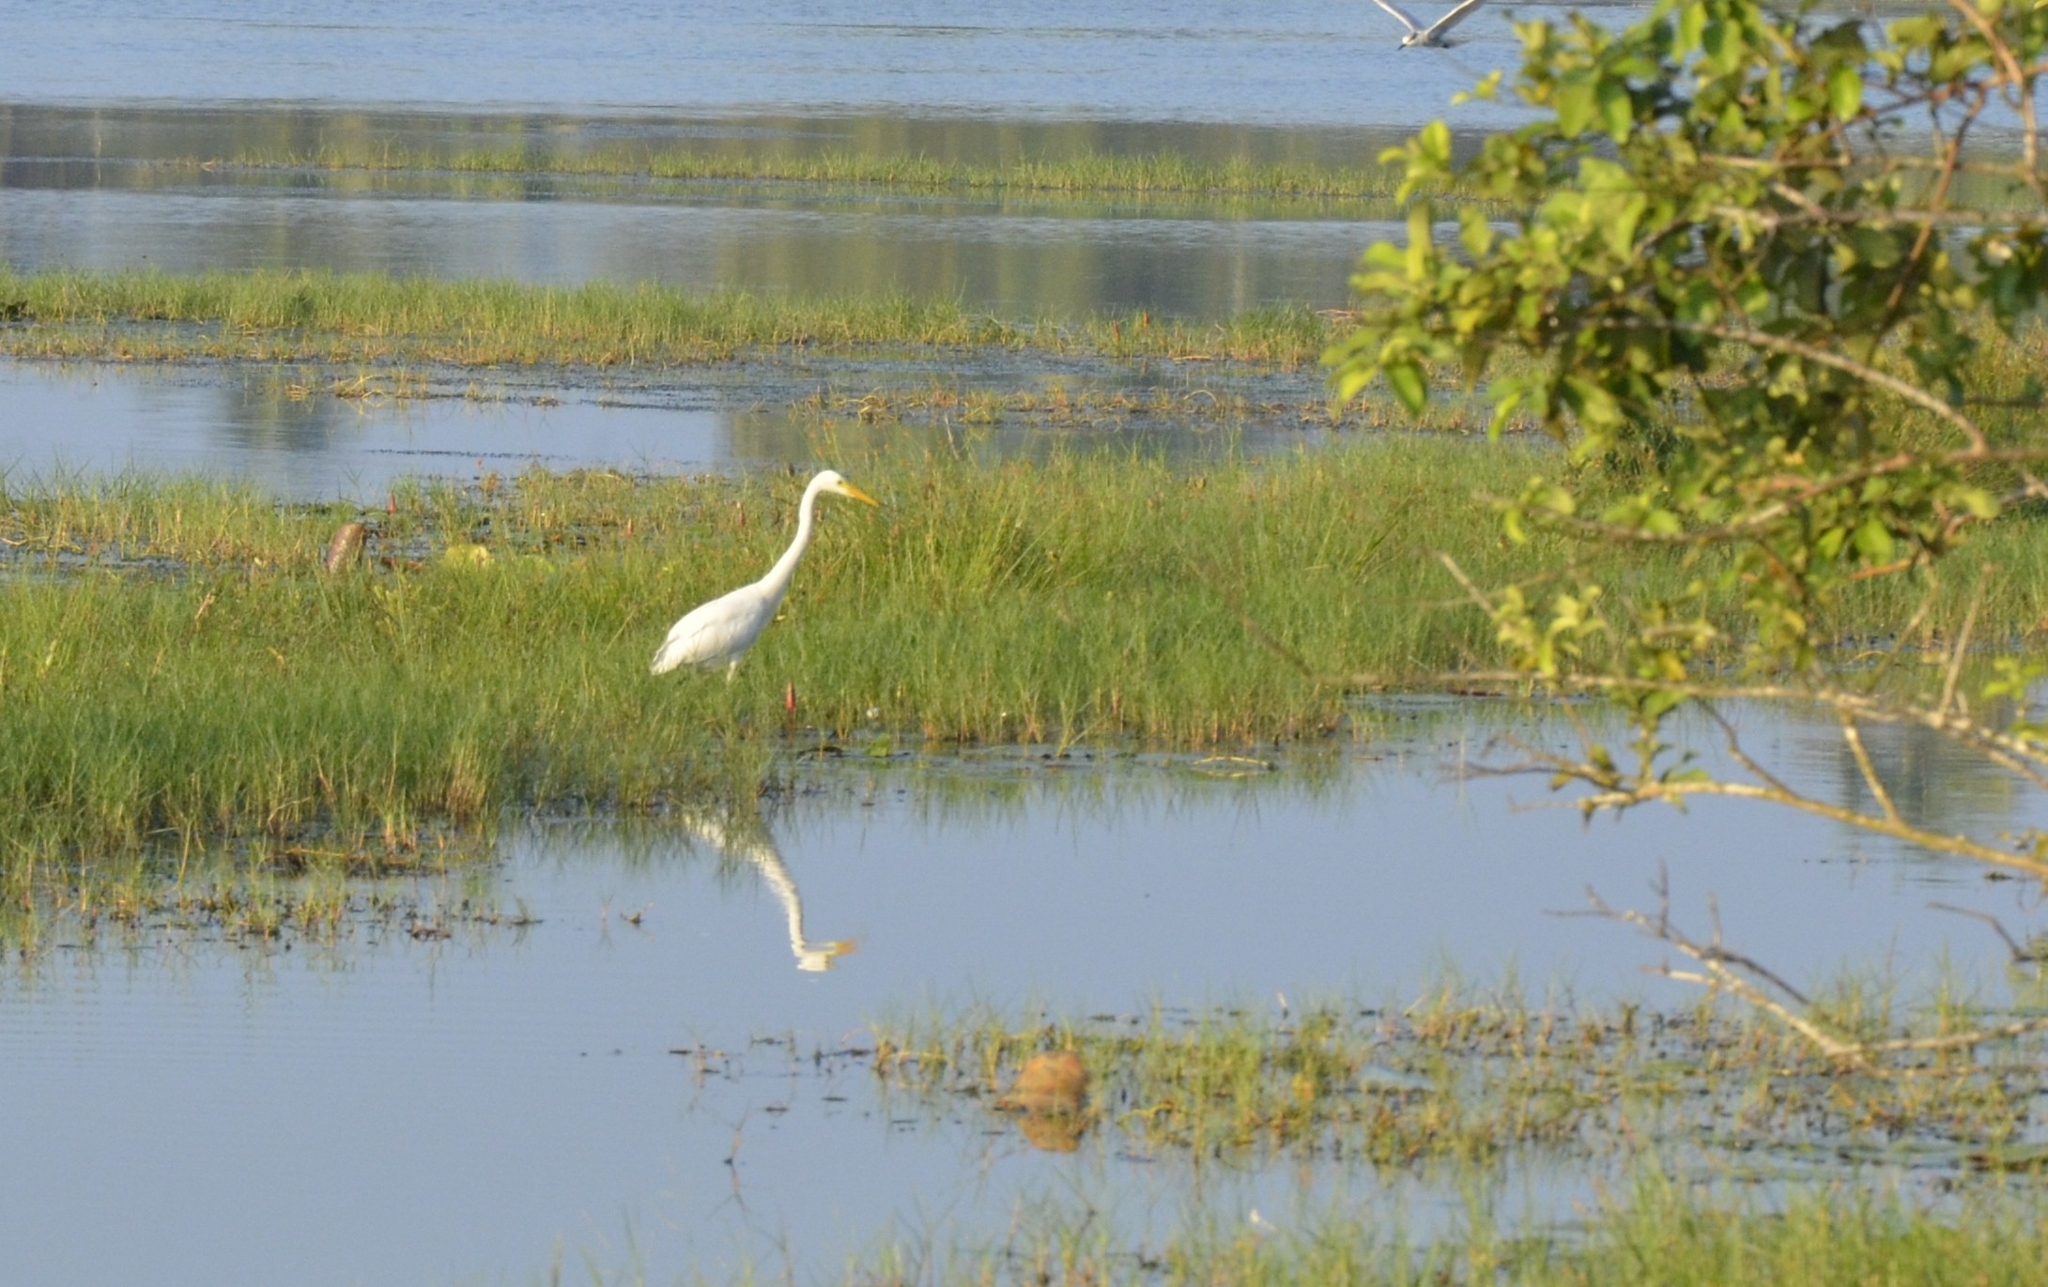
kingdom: Animalia
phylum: Chordata
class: Aves
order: Pelecaniformes
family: Ardeidae
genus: Egretta
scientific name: Egretta intermedia
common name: Intermediate egret
